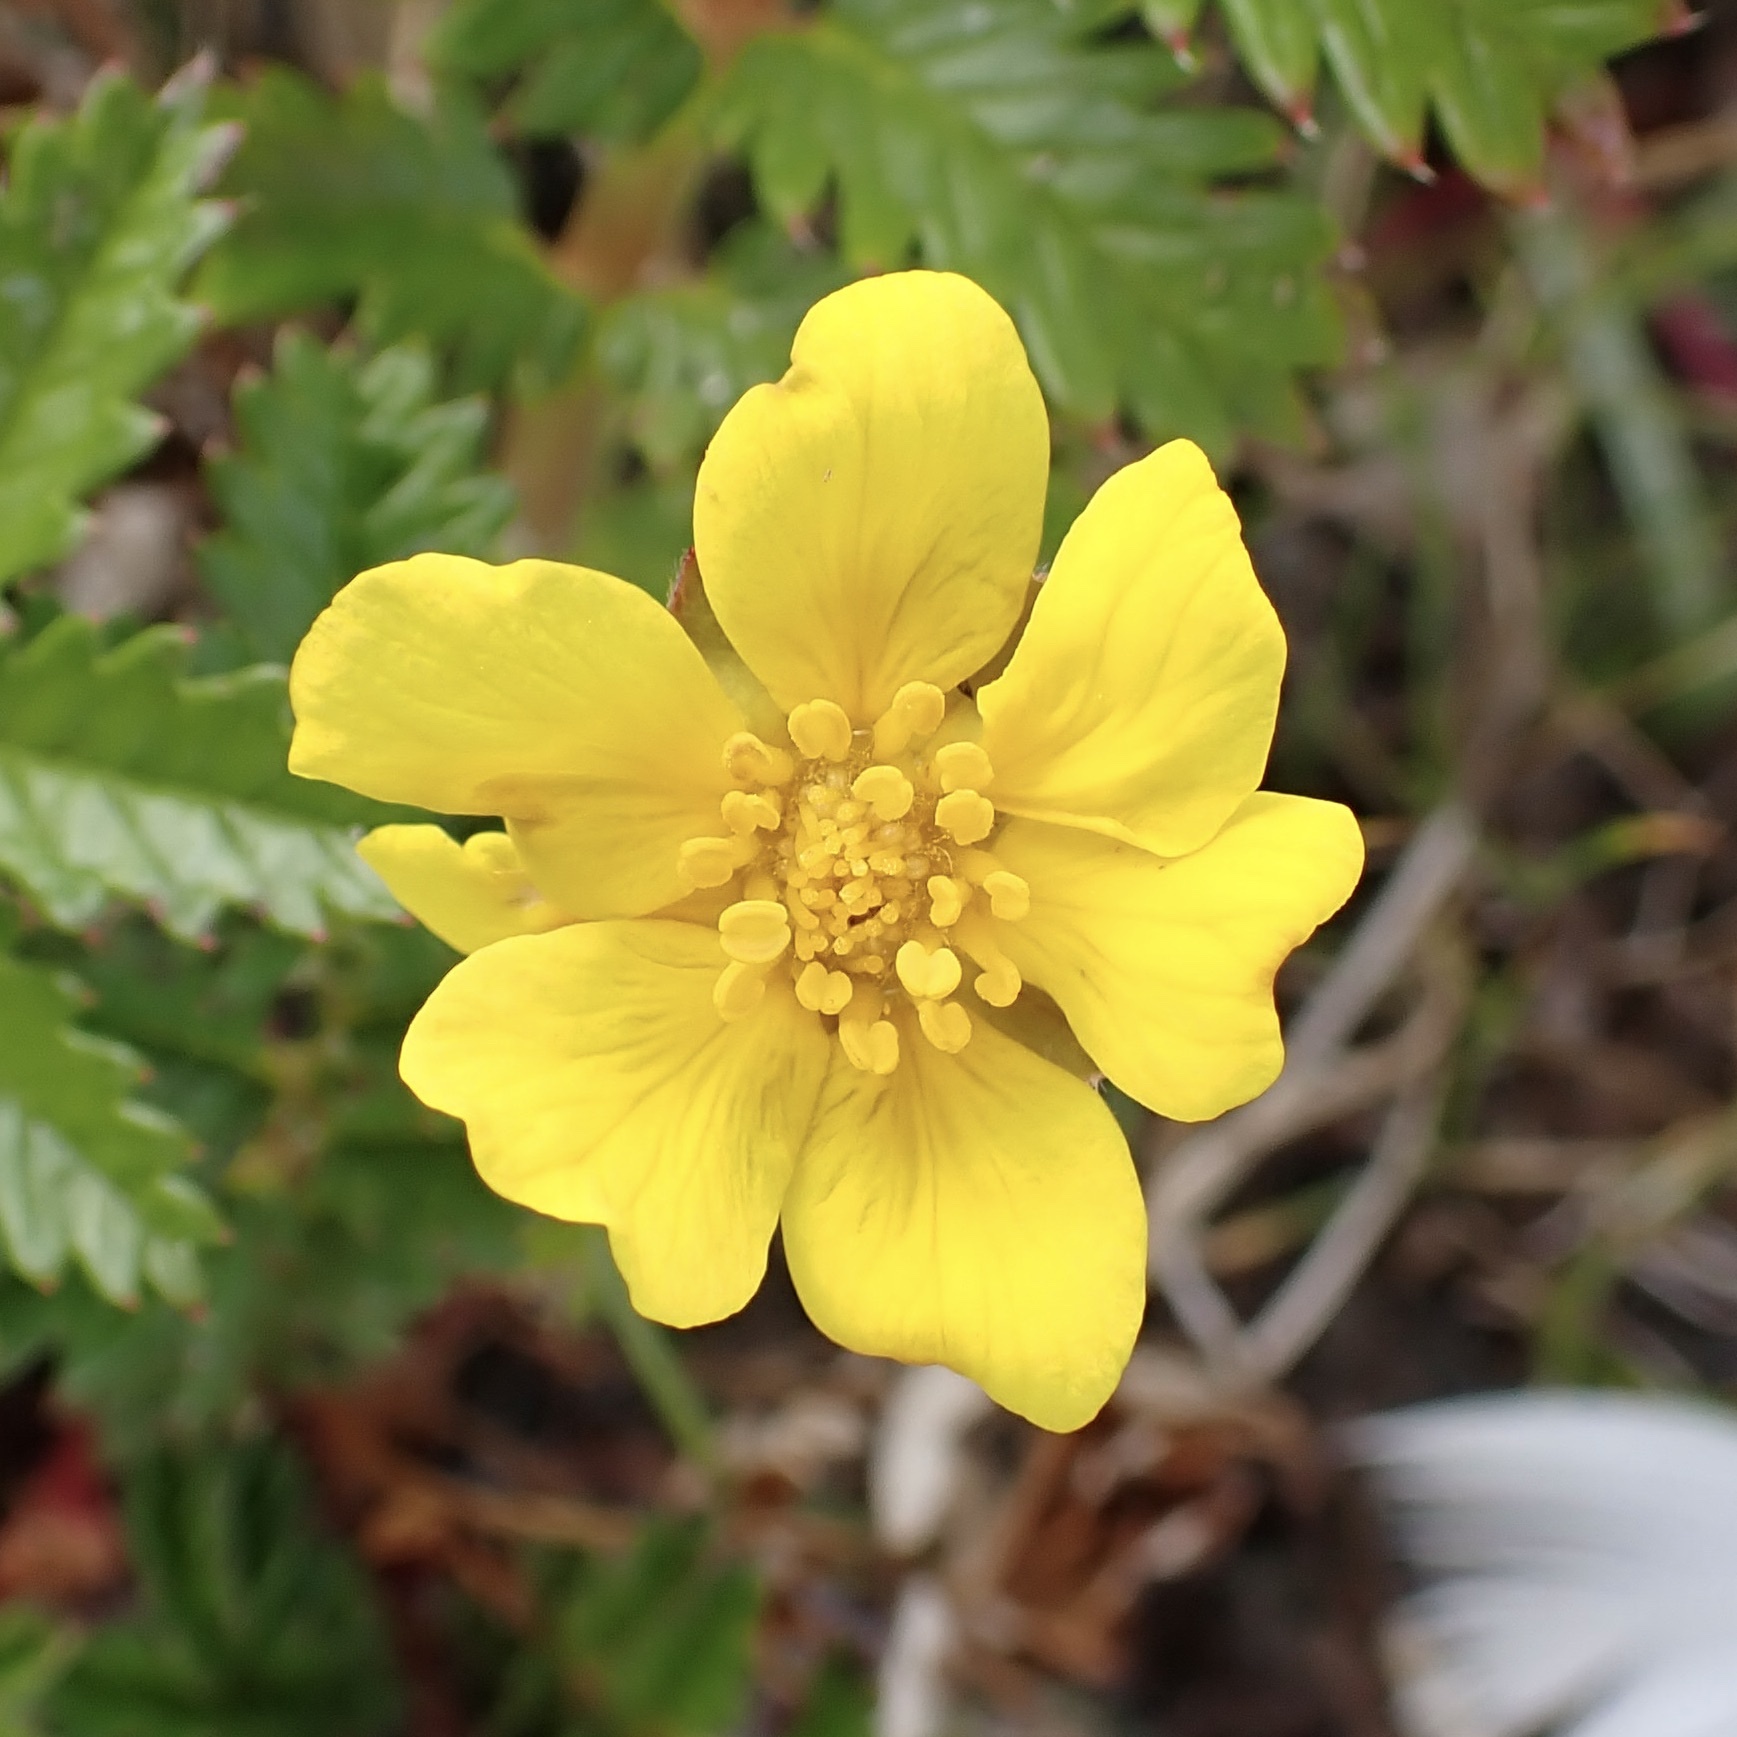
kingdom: Plantae
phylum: Tracheophyta
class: Magnoliopsida
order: Rosales
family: Rosaceae
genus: Argentina
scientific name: Argentina anserina
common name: Common silverweed
